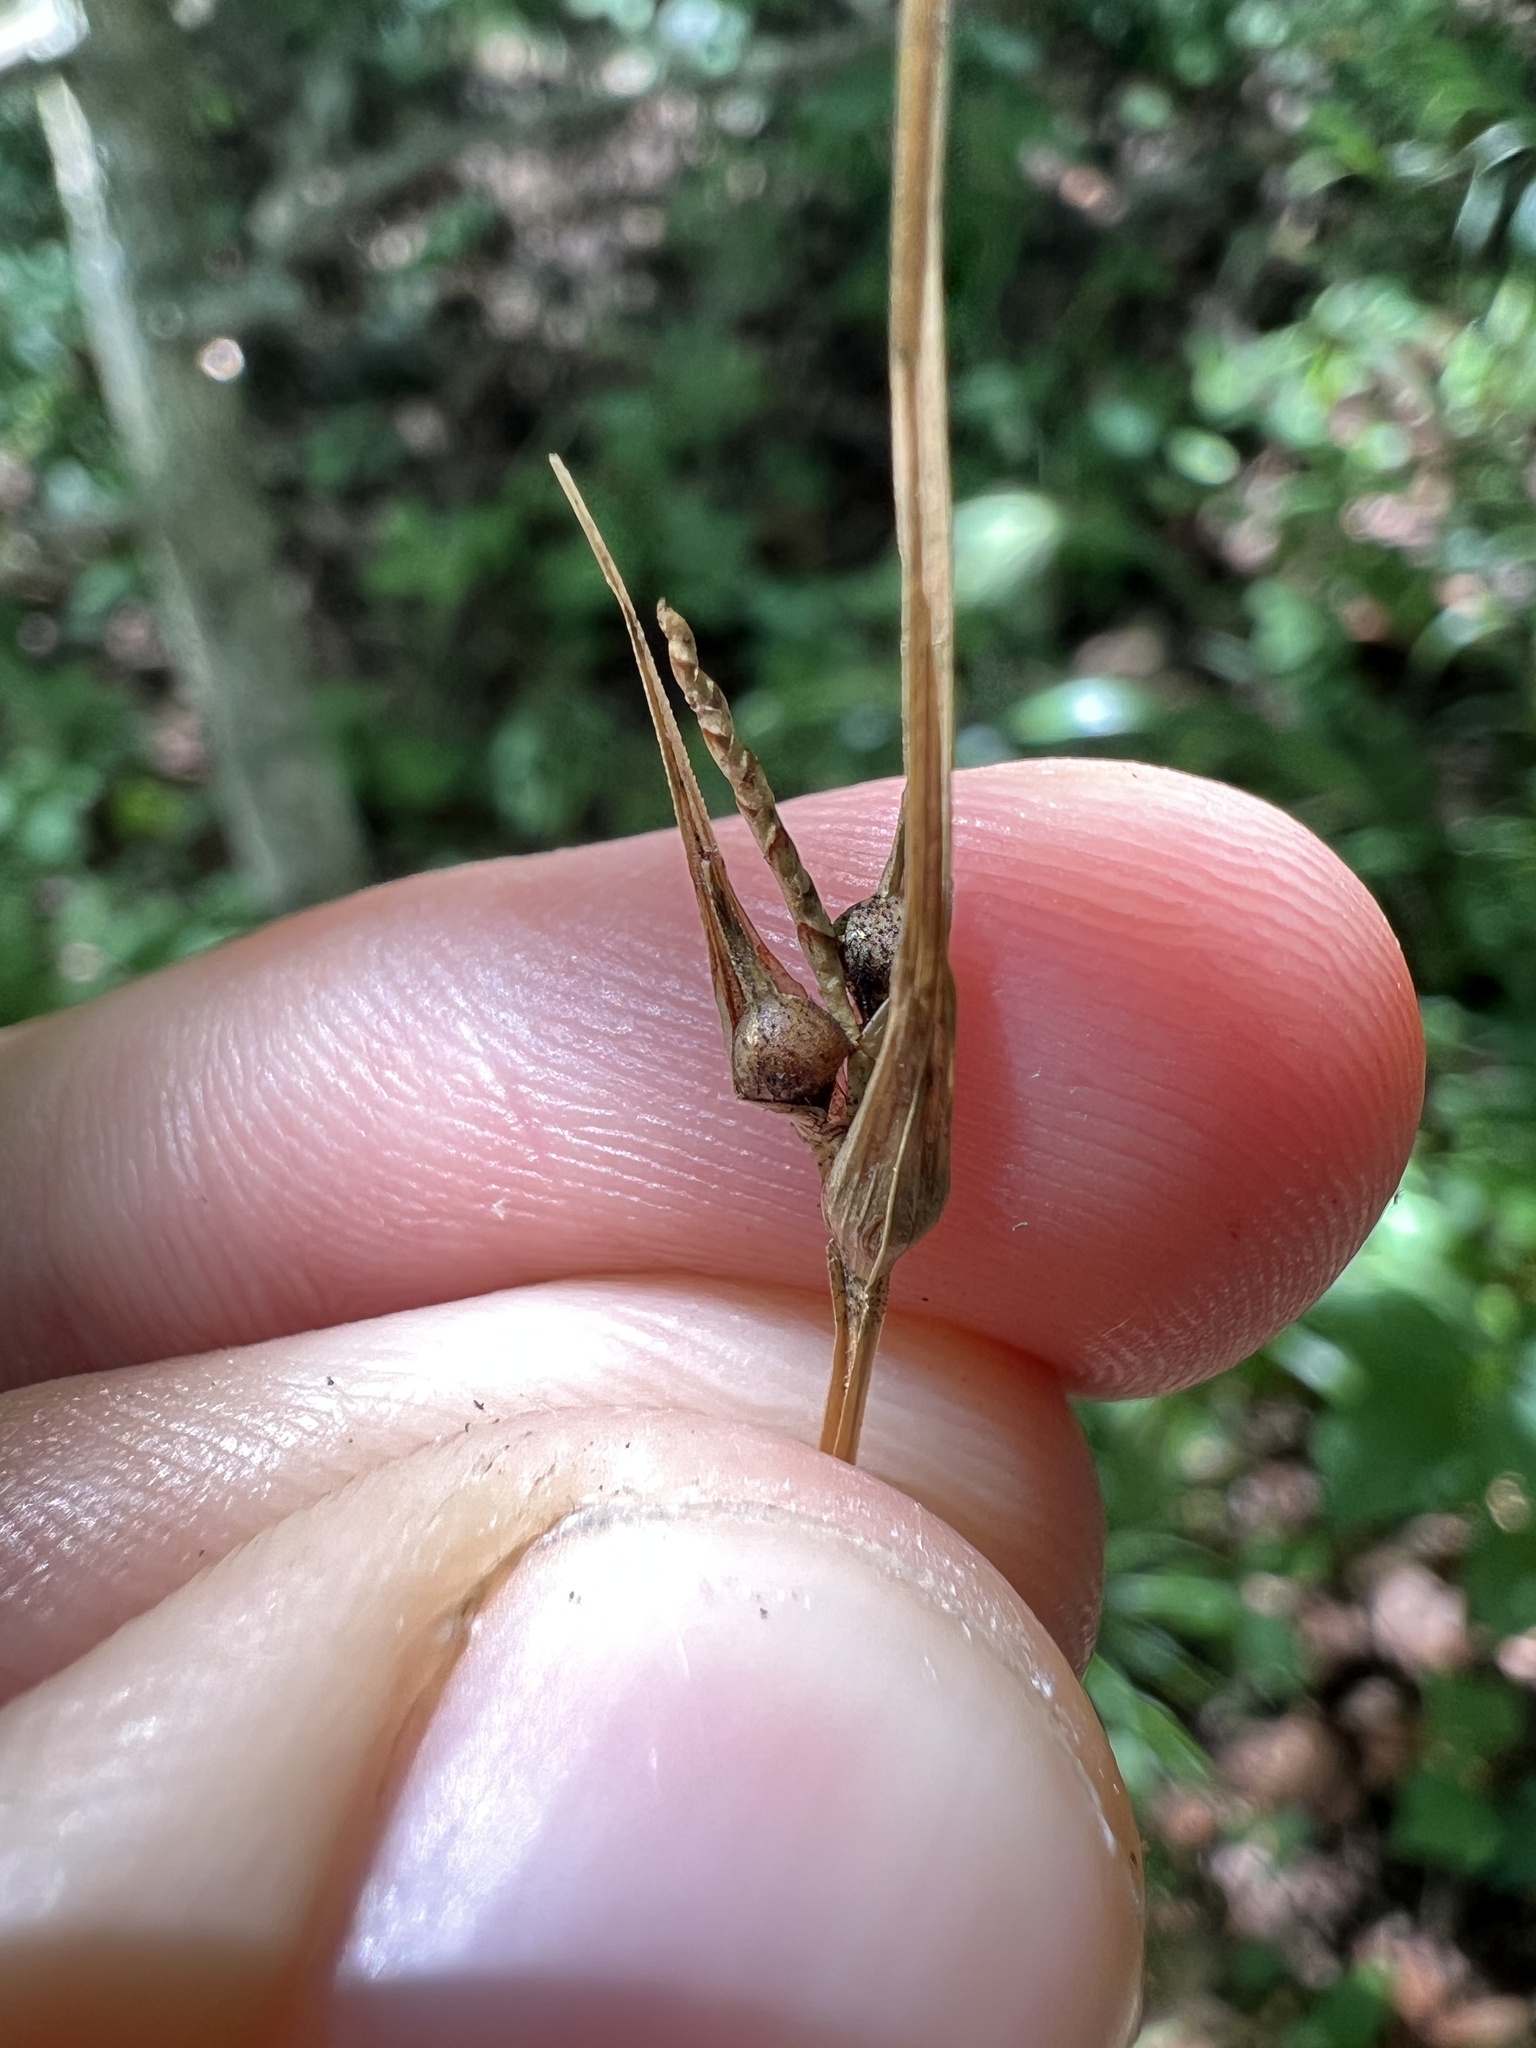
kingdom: Plantae
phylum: Tracheophyta
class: Liliopsida
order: Poales
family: Cyperaceae
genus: Carex
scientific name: Carex jamesii
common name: Grass sedge
